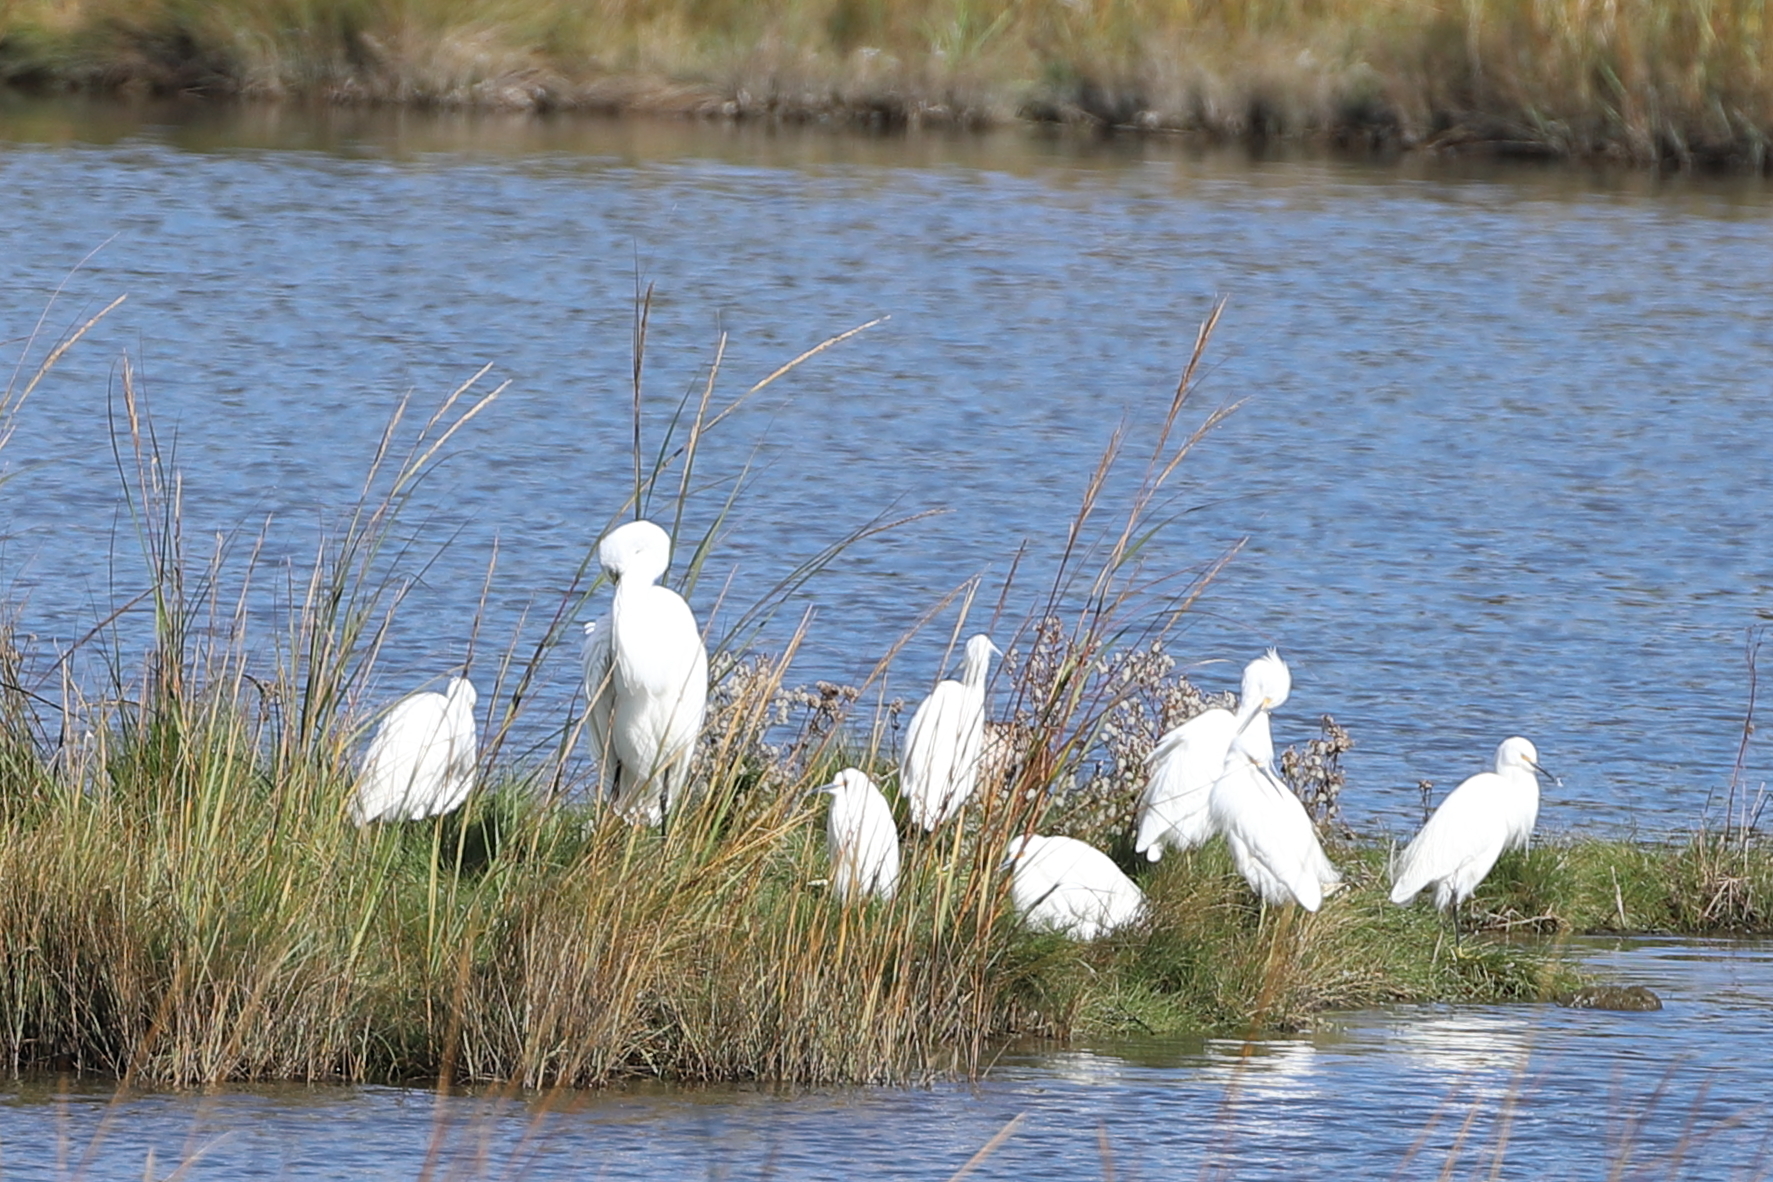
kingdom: Animalia
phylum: Chordata
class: Aves
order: Pelecaniformes
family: Ardeidae
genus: Egretta
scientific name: Egretta thula
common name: Snowy egret
